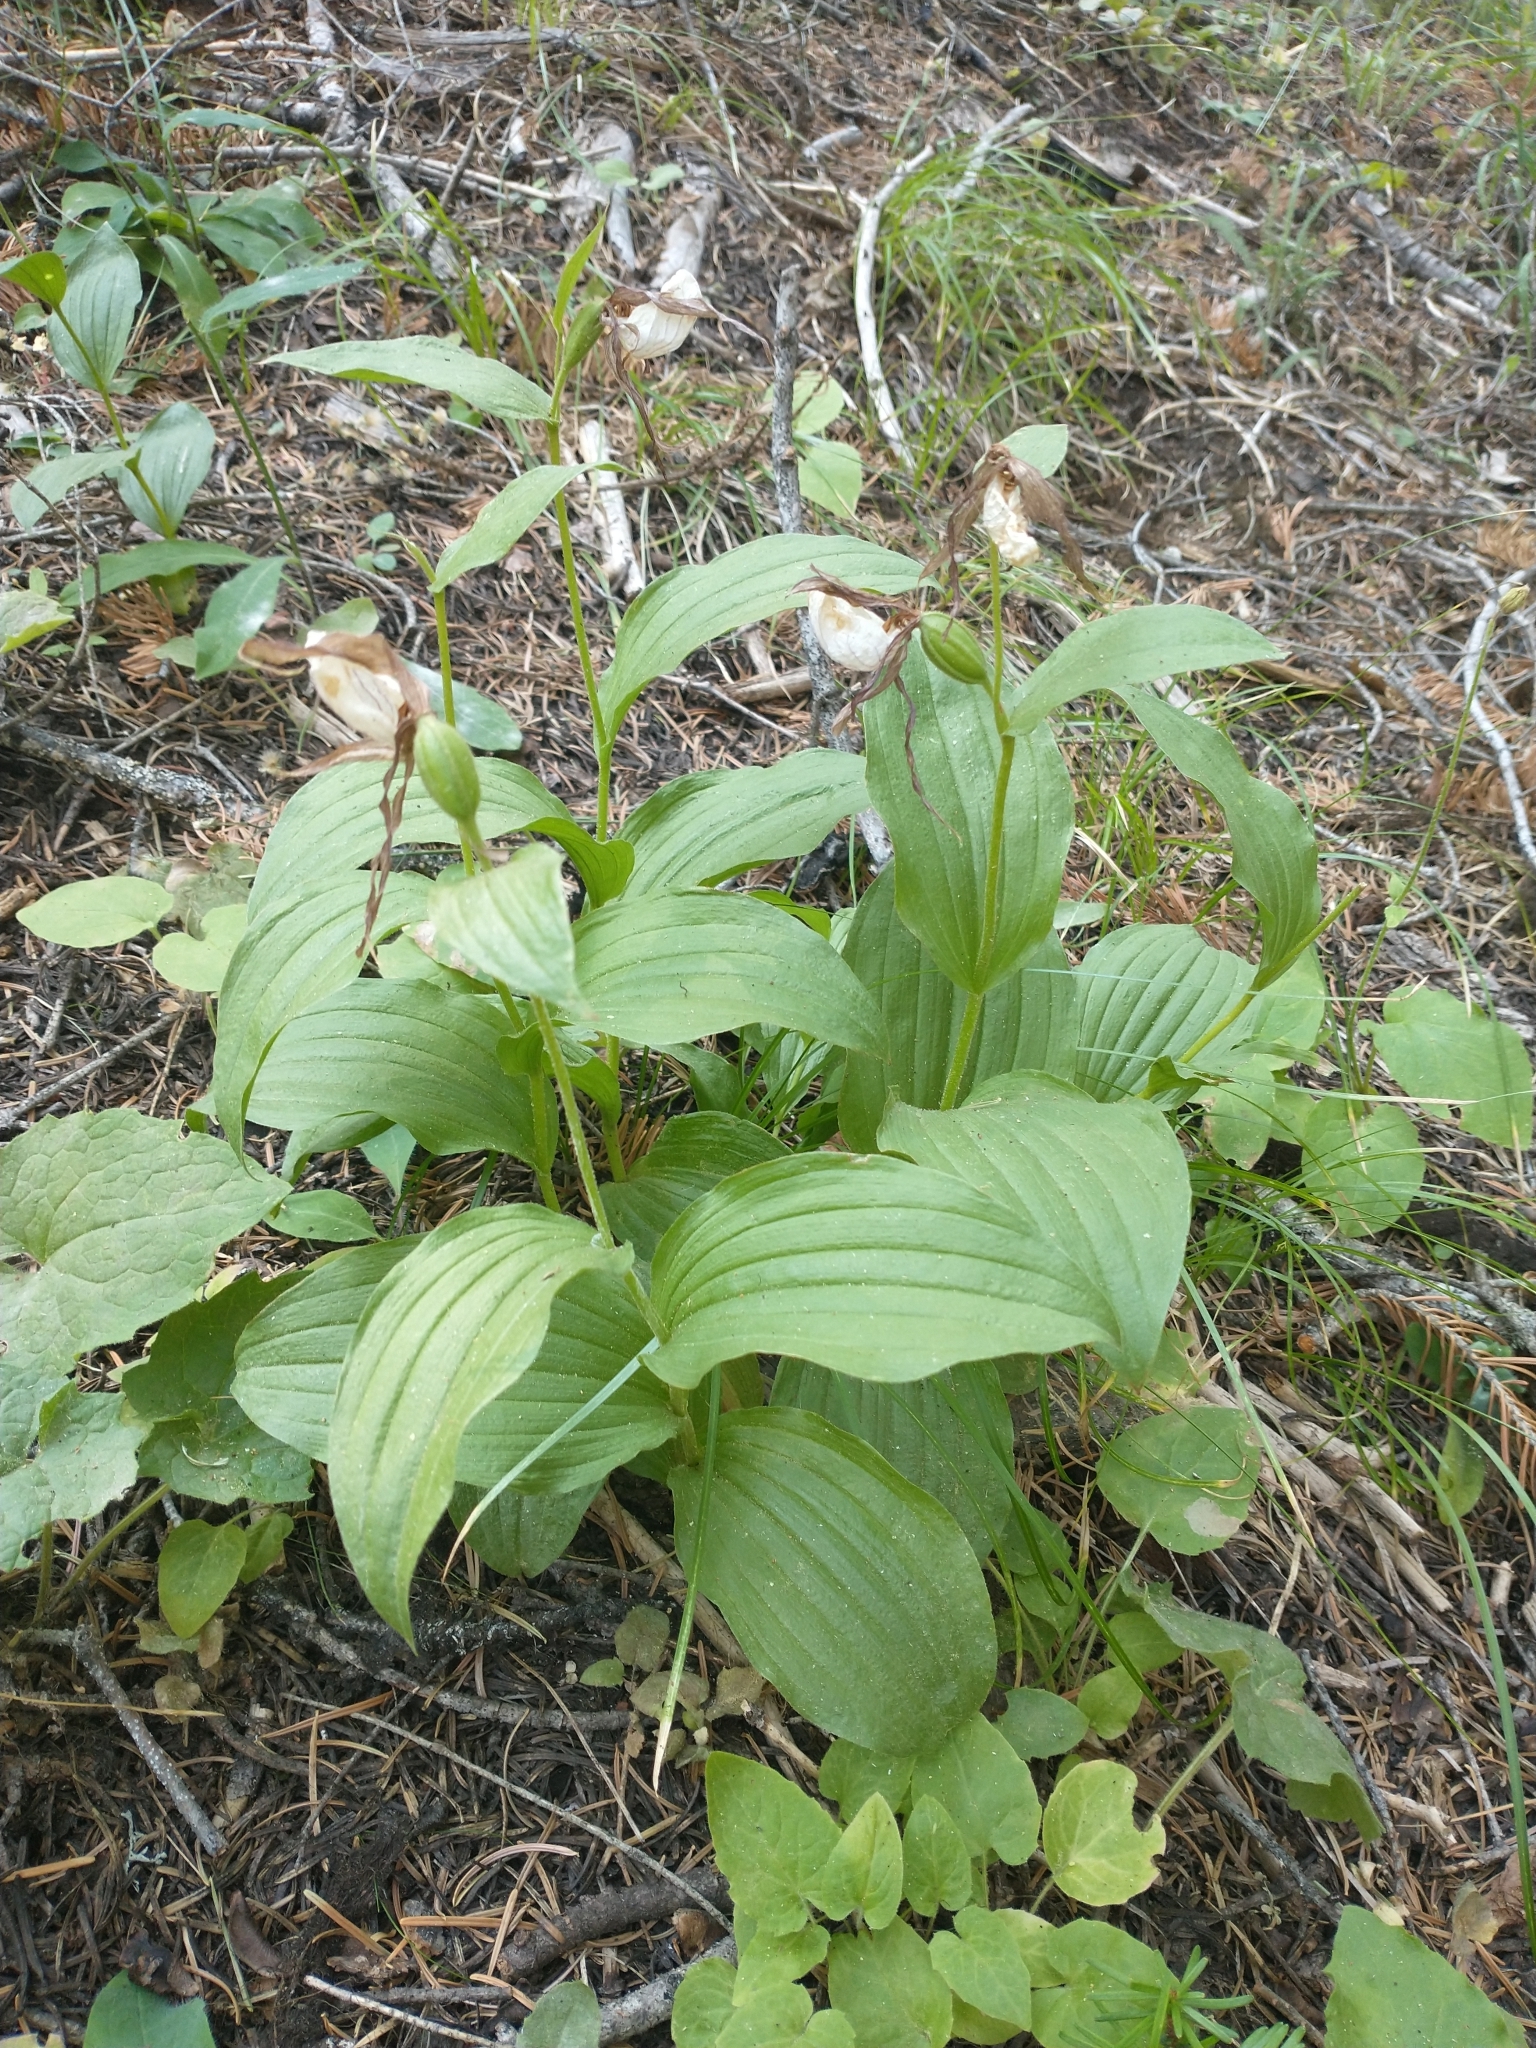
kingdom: Plantae
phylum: Tracheophyta
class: Liliopsida
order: Asparagales
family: Orchidaceae
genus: Cypripedium
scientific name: Cypripedium montanum
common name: Mountain lady's-slipper
